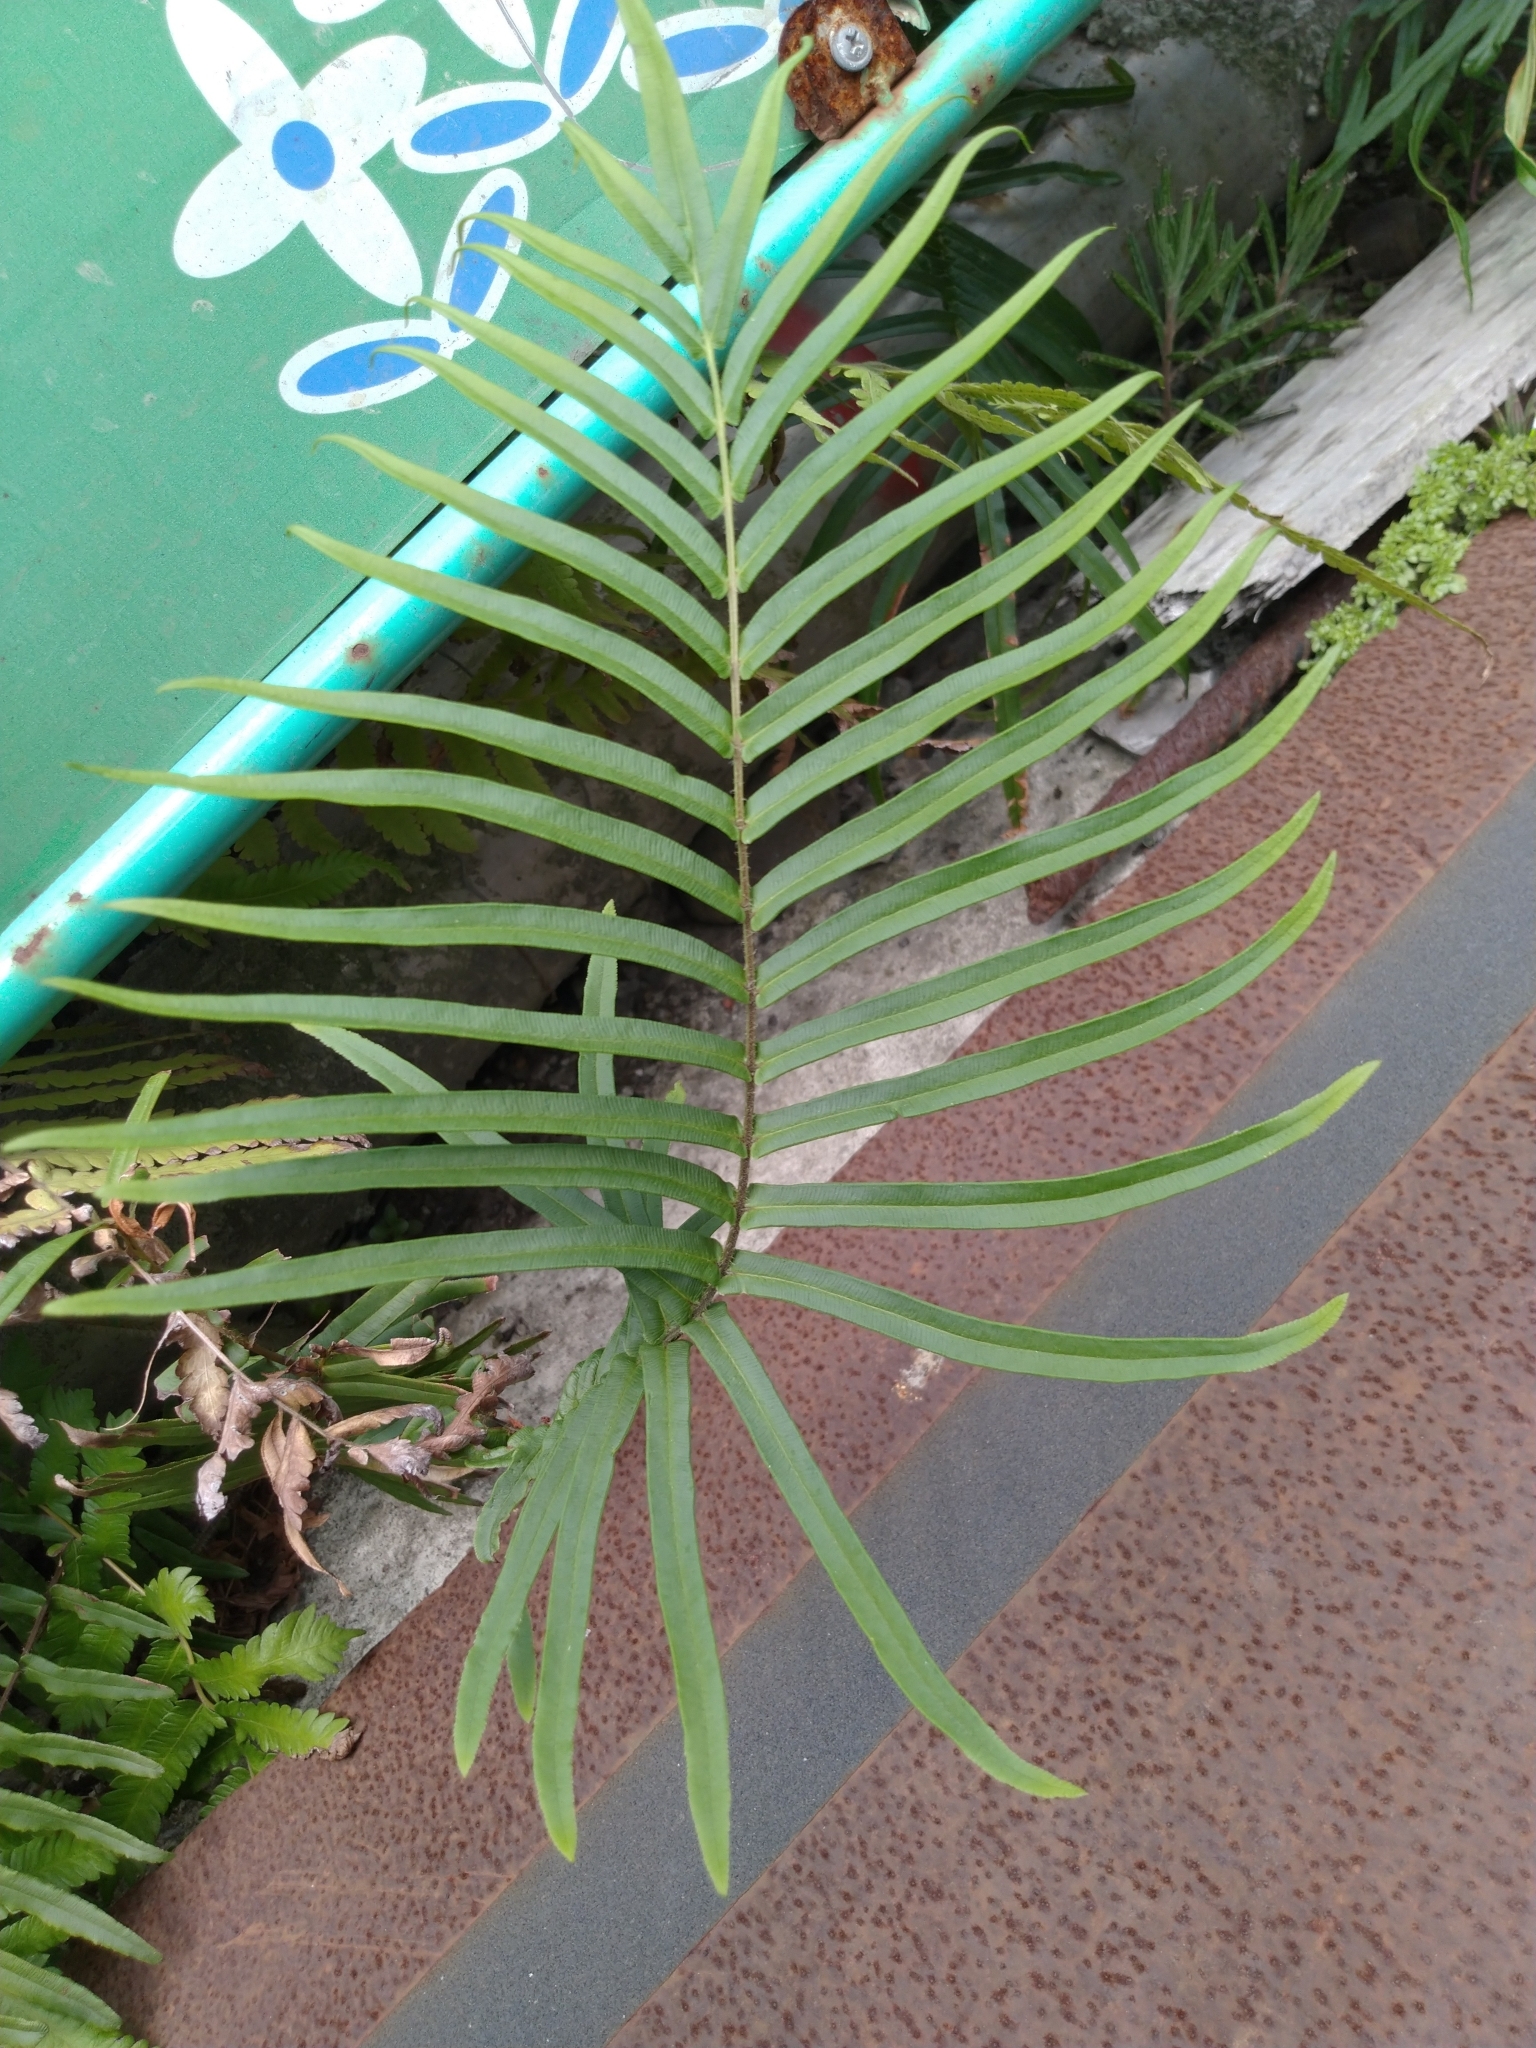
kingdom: Plantae
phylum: Tracheophyta
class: Polypodiopsida
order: Polypodiales
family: Pteridaceae
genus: Pteris
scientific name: Pteris vittata
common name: Ladder brake
